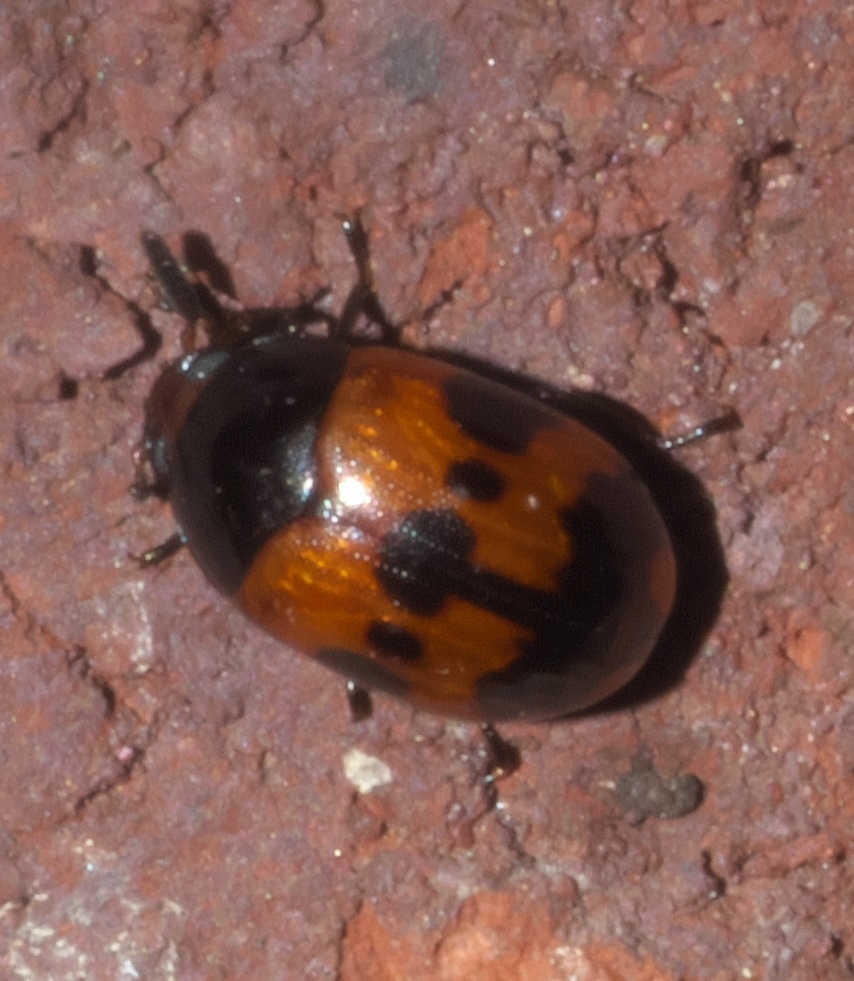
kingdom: Animalia
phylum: Arthropoda
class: Insecta
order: Coleoptera
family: Tenebrionidae
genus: Diaperis
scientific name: Diaperis nigronotata
